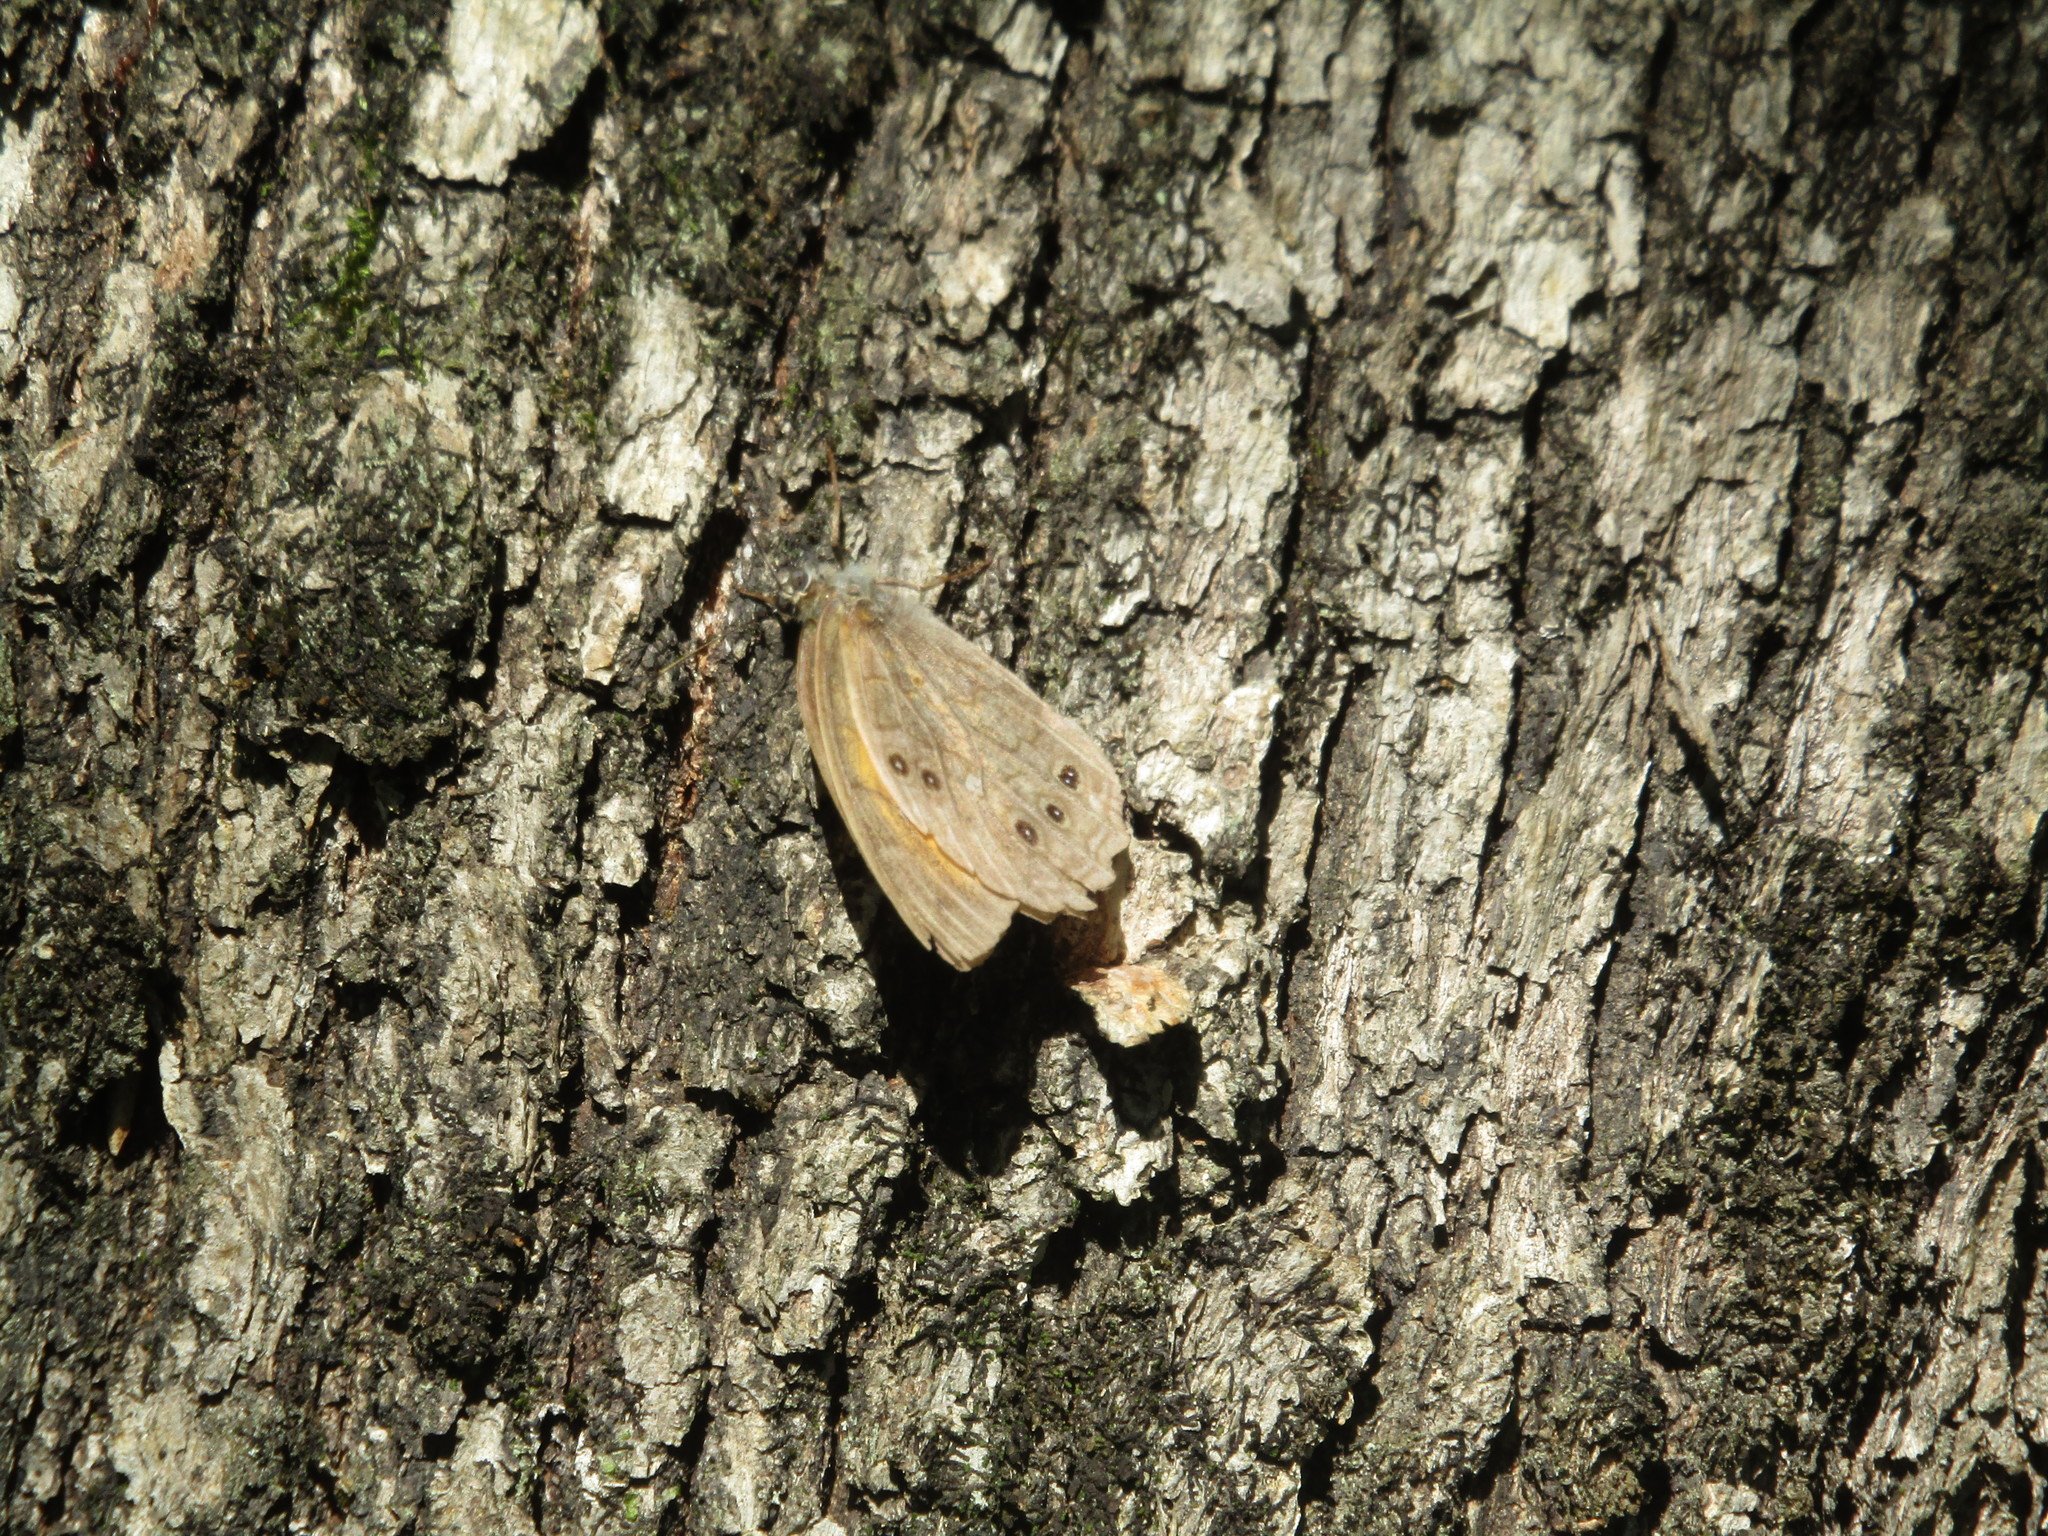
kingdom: Animalia
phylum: Arthropoda
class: Insecta
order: Lepidoptera
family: Nymphalidae
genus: Kirinia
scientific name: Kirinia roxelana
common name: Lattice brown
